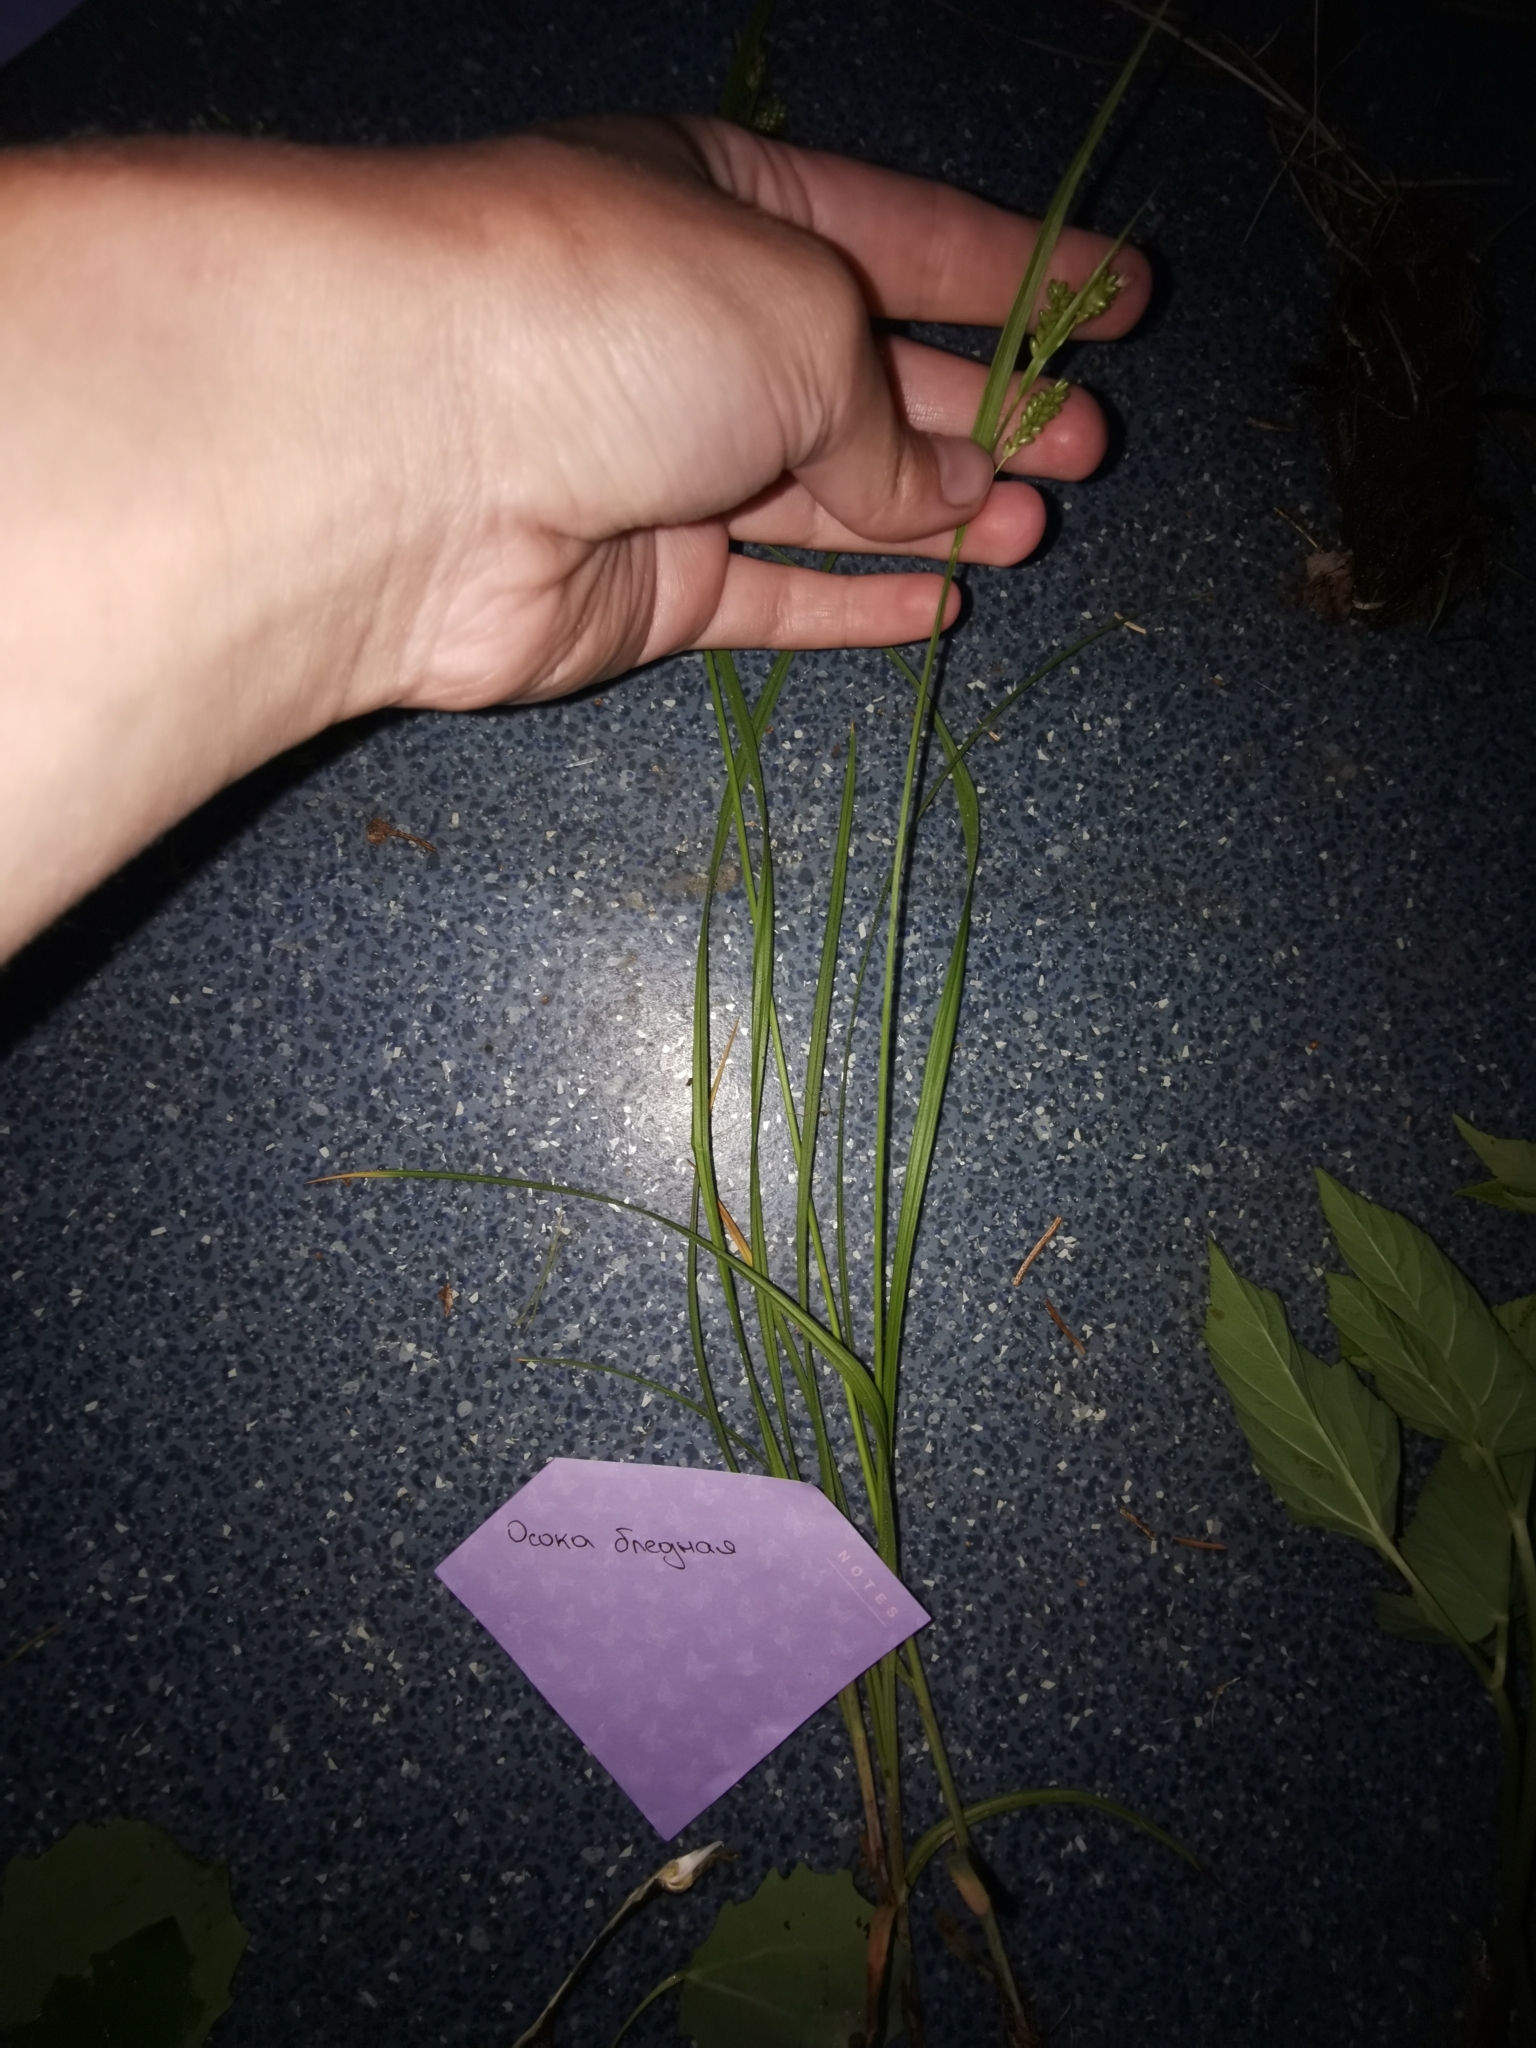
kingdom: Plantae
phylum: Tracheophyta
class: Liliopsida
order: Poales
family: Cyperaceae
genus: Carex
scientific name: Carex pallescens
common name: Pale sedge
